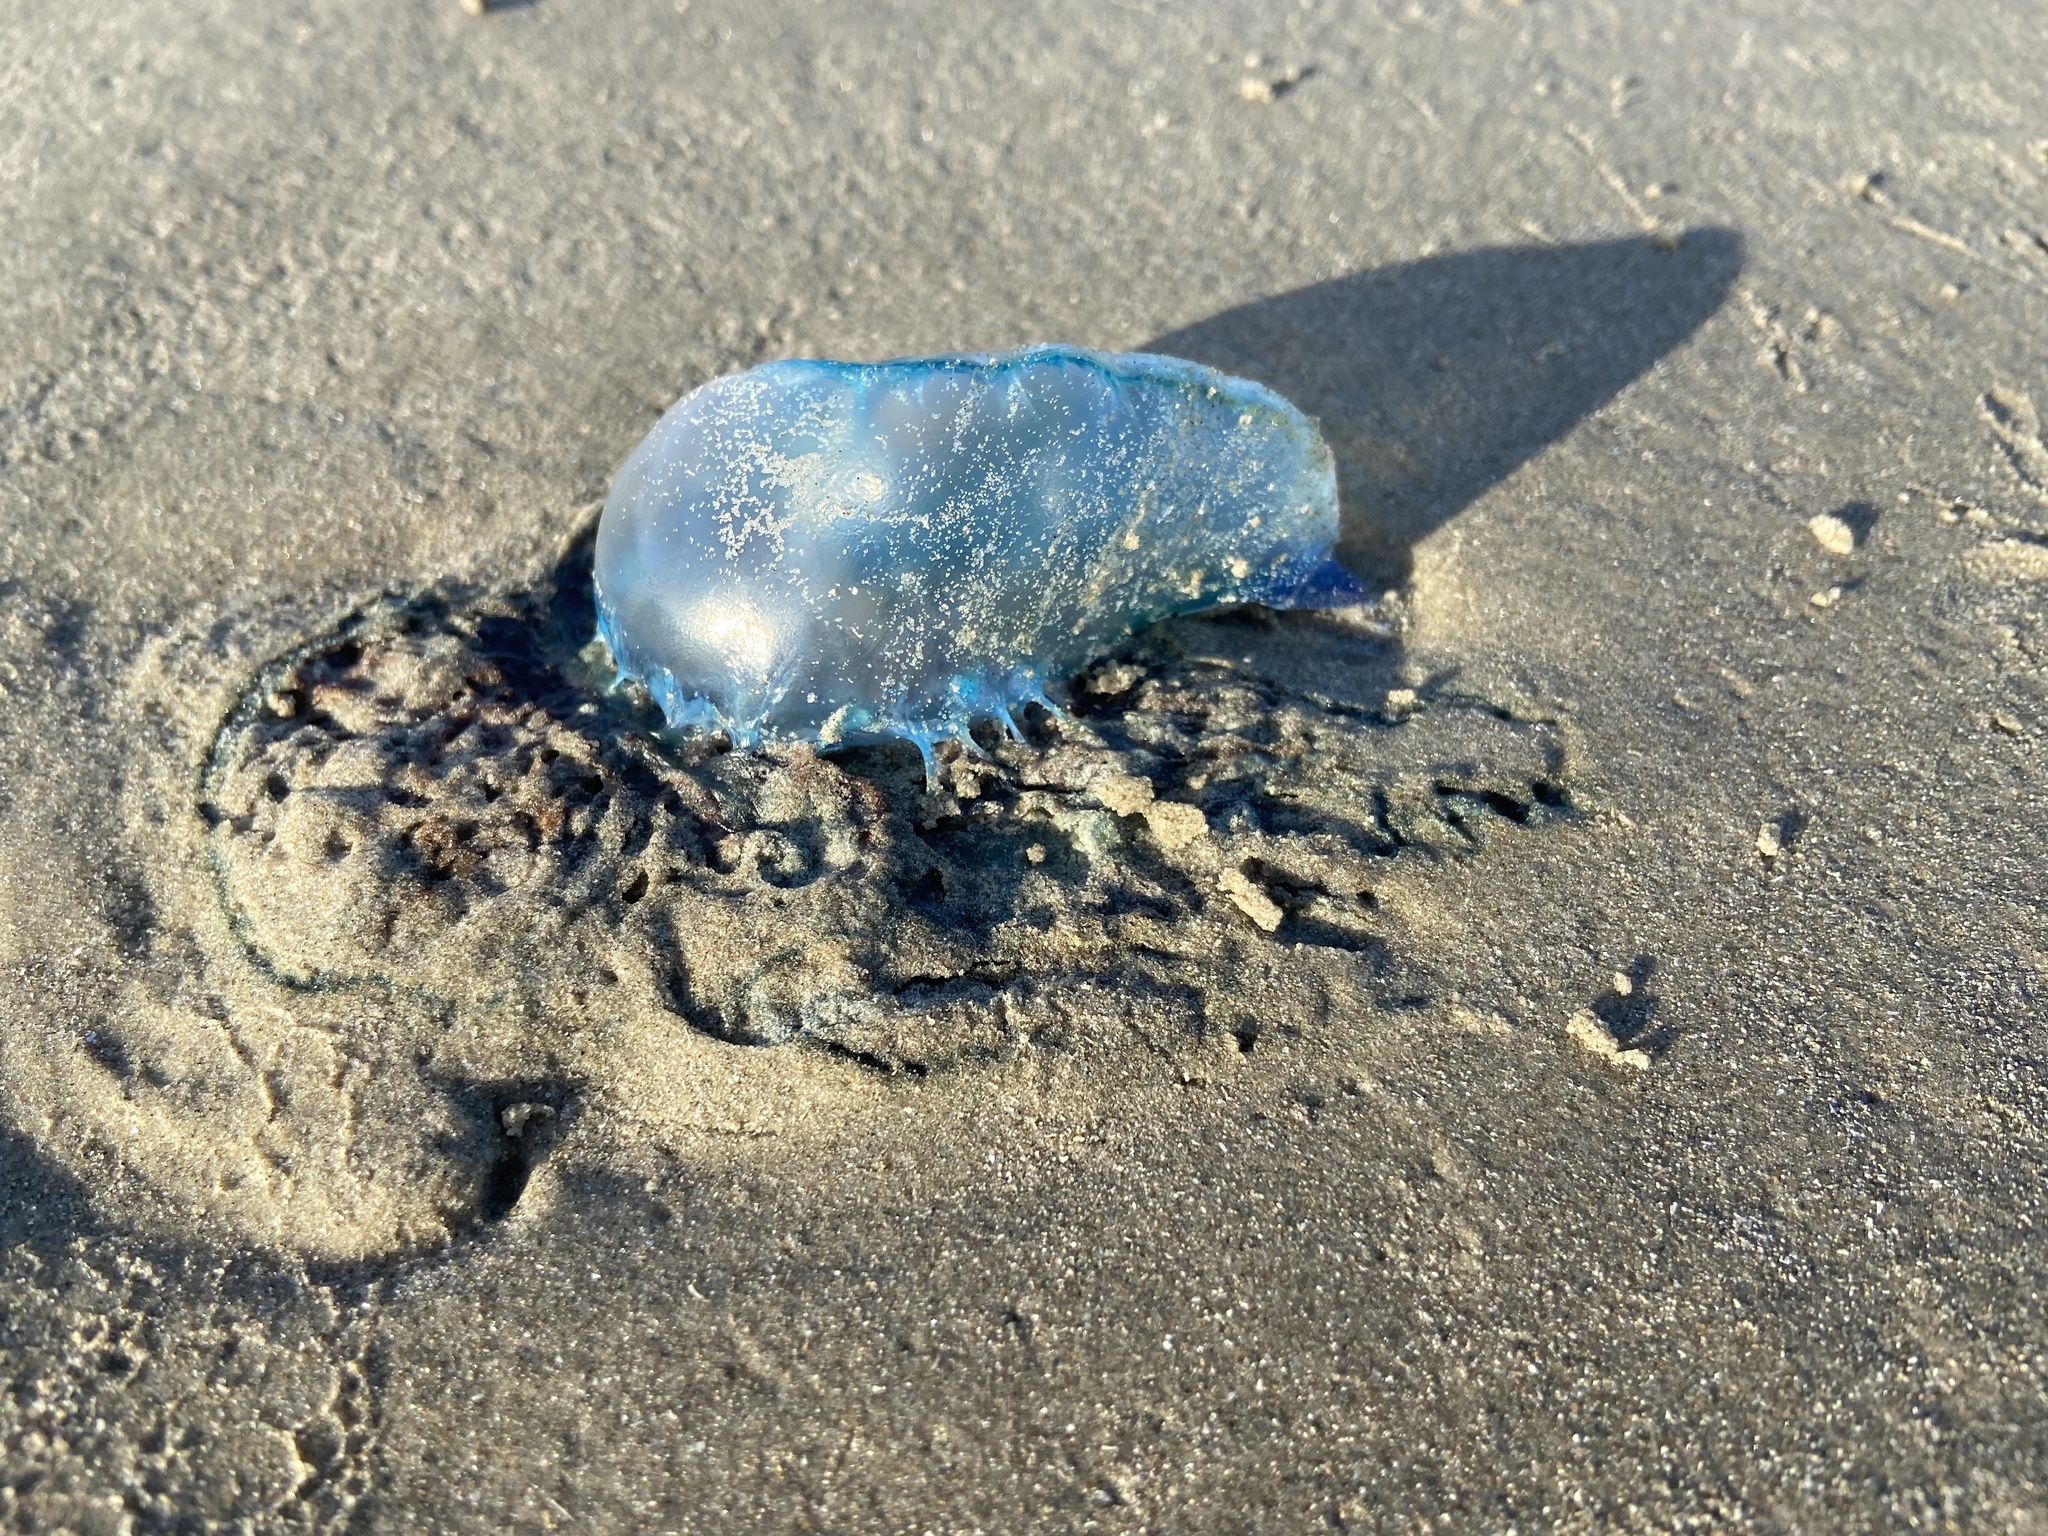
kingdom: Animalia
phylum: Cnidaria
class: Hydrozoa
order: Siphonophorae
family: Physaliidae
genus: Physalia
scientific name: Physalia physalis
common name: Portuguese man-of-war
